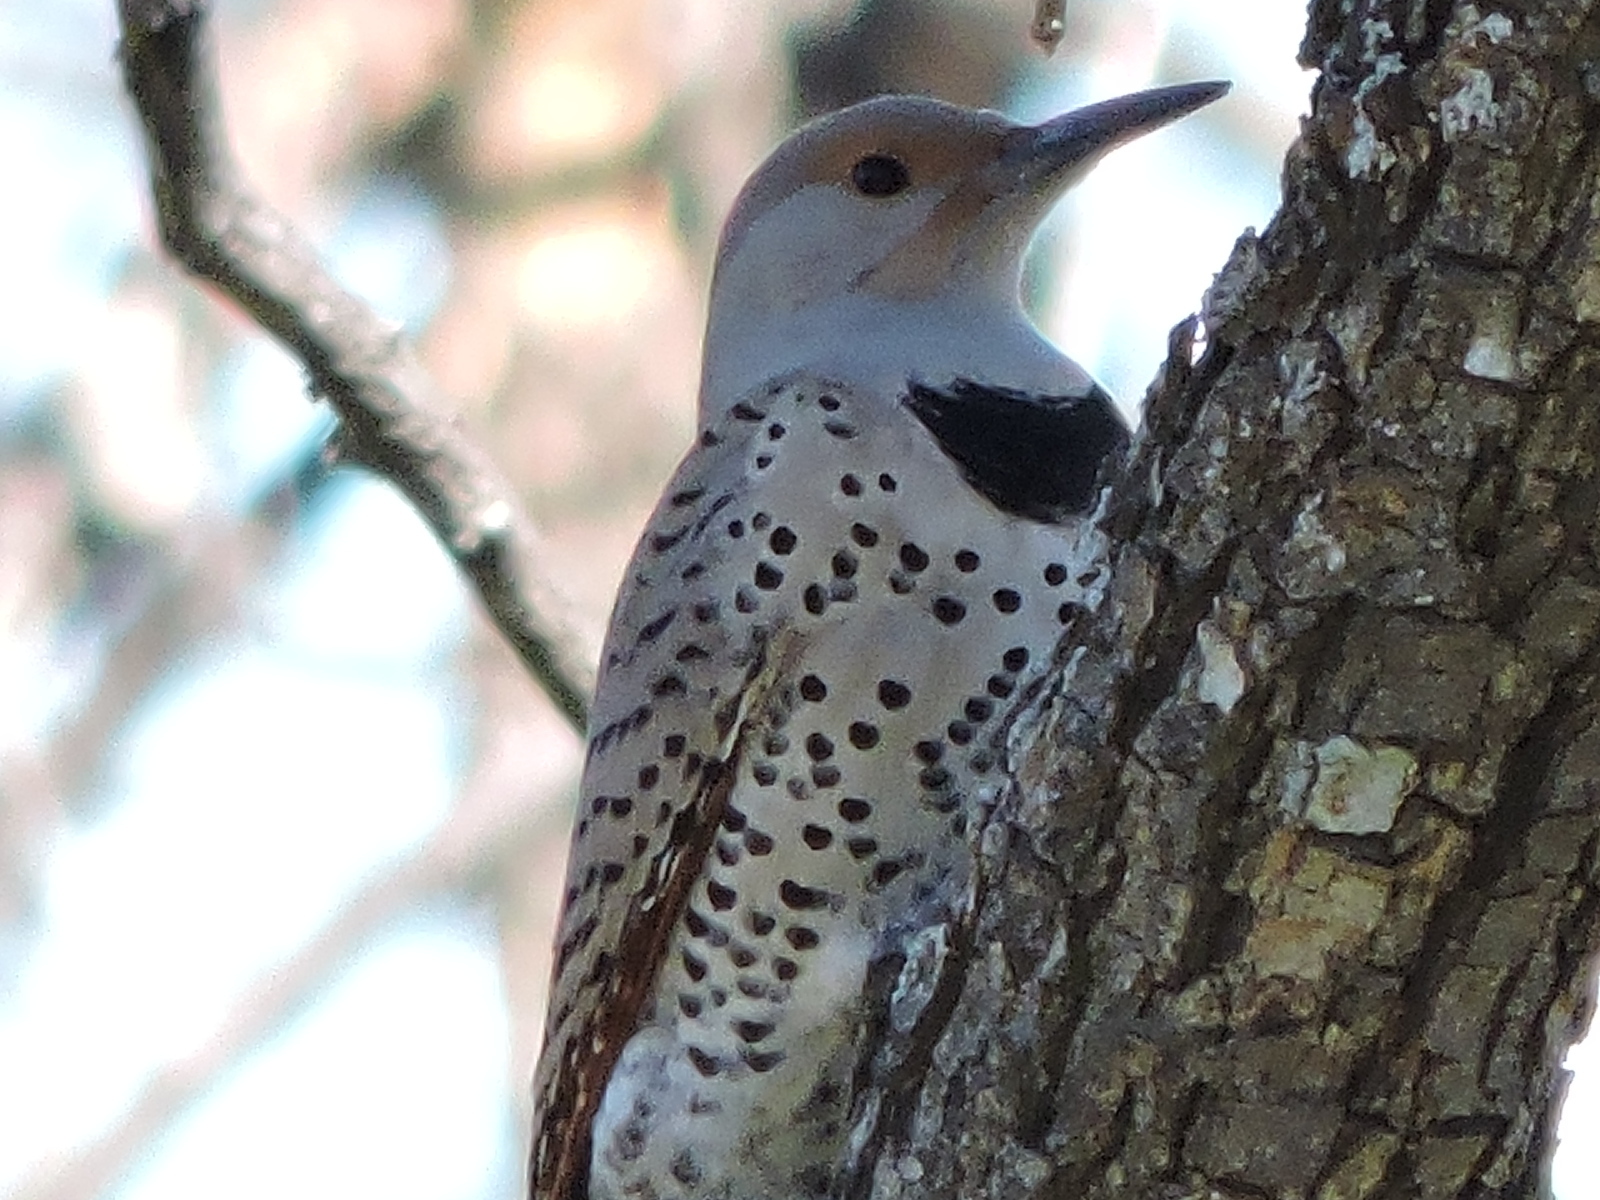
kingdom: Animalia
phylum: Chordata
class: Aves
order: Piciformes
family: Picidae
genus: Colaptes
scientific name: Colaptes auratus
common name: Northern flicker
